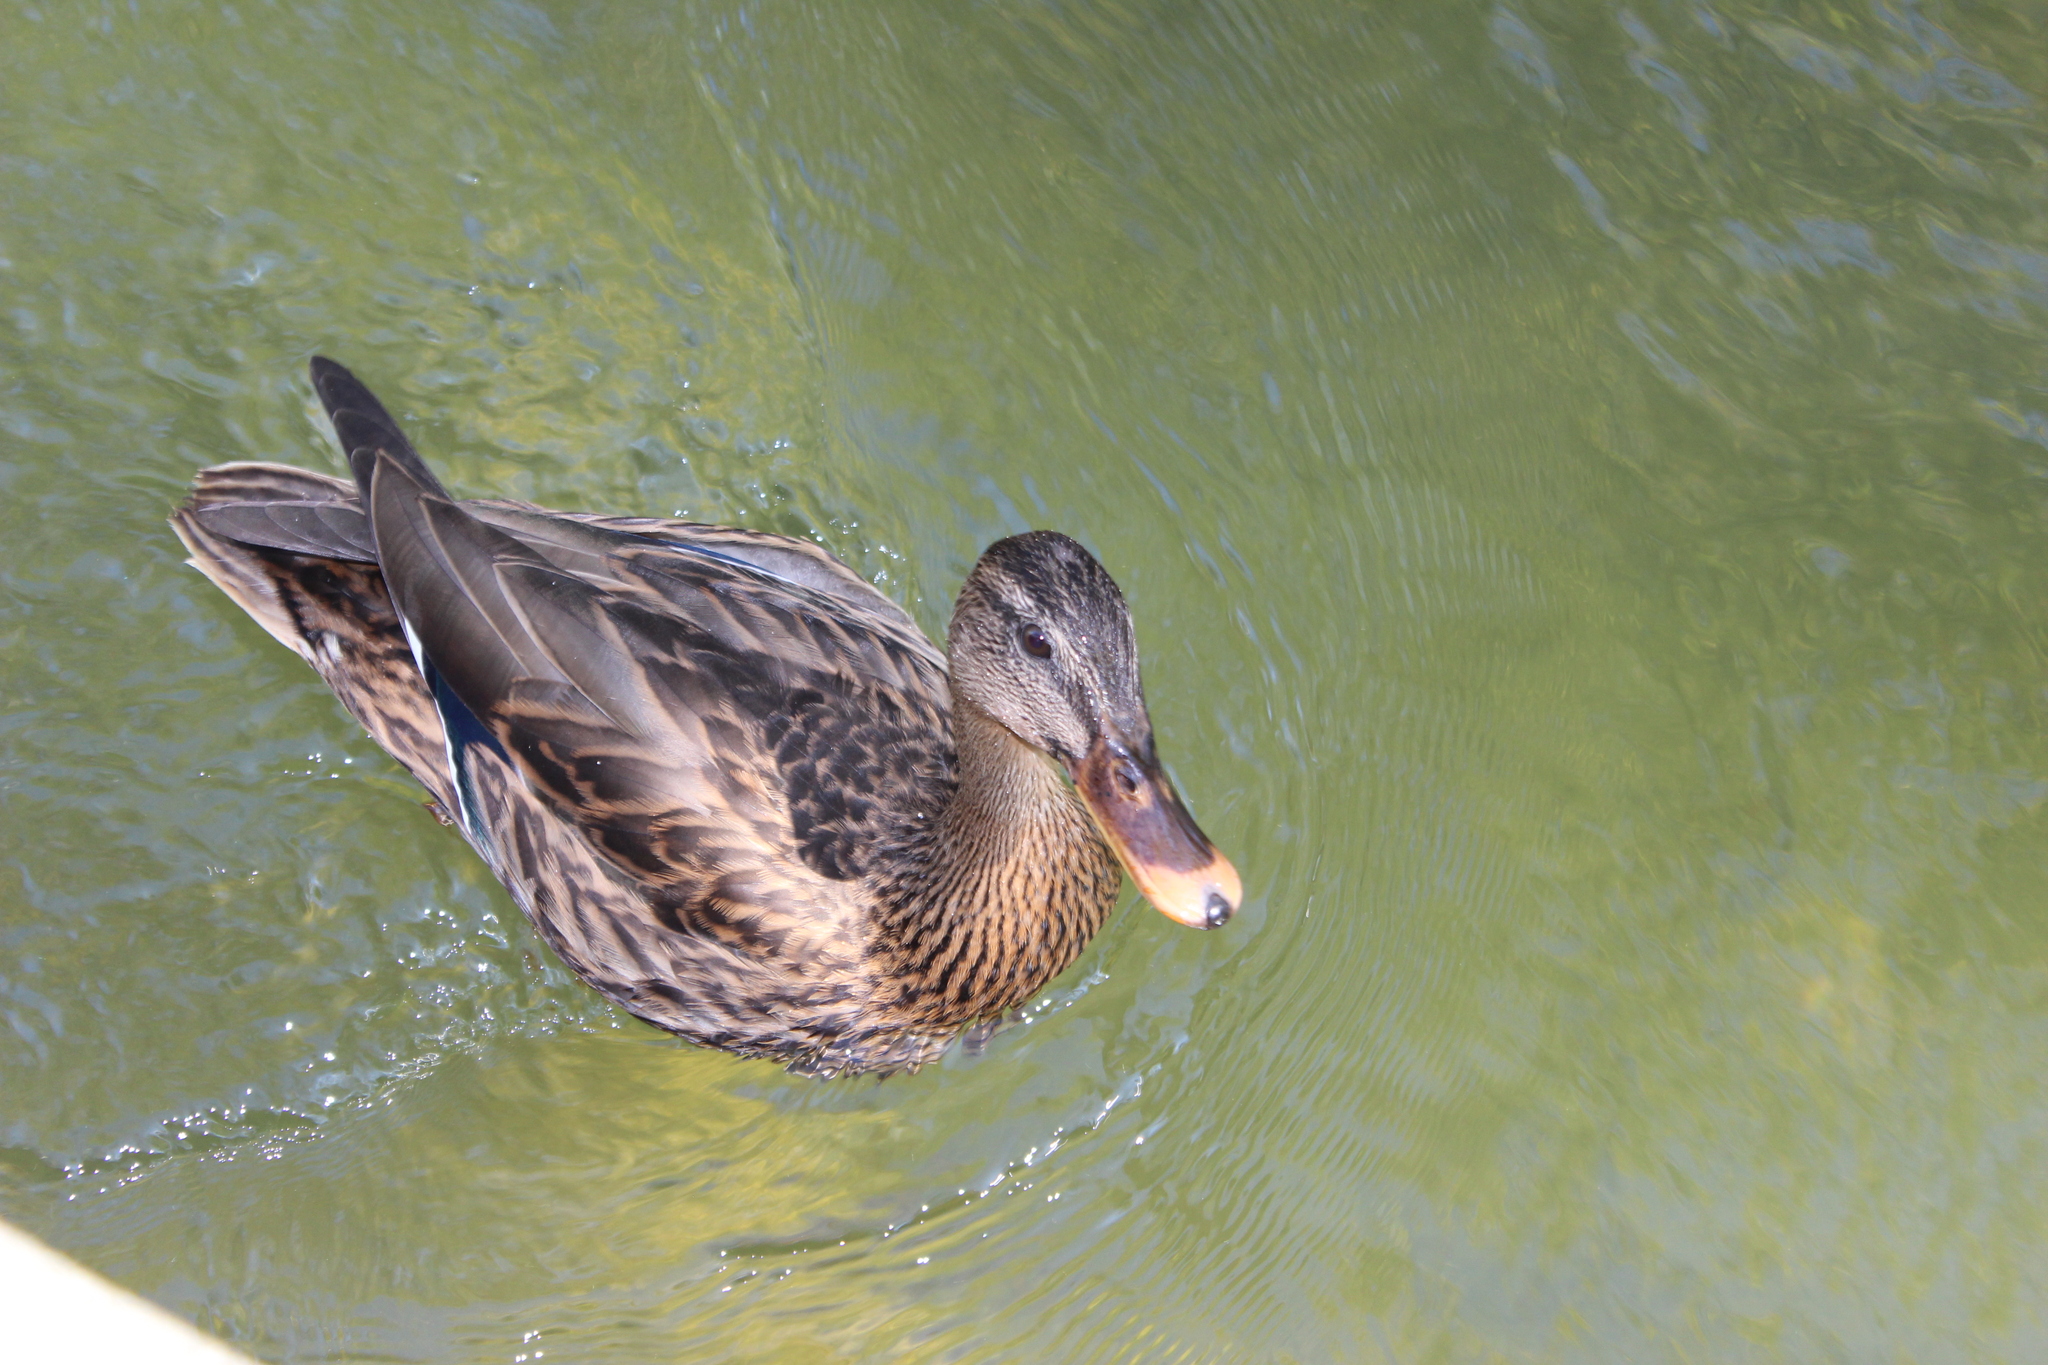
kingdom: Animalia
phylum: Chordata
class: Aves
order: Anseriformes
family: Anatidae
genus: Anas
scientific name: Anas platyrhynchos
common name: Mallard
